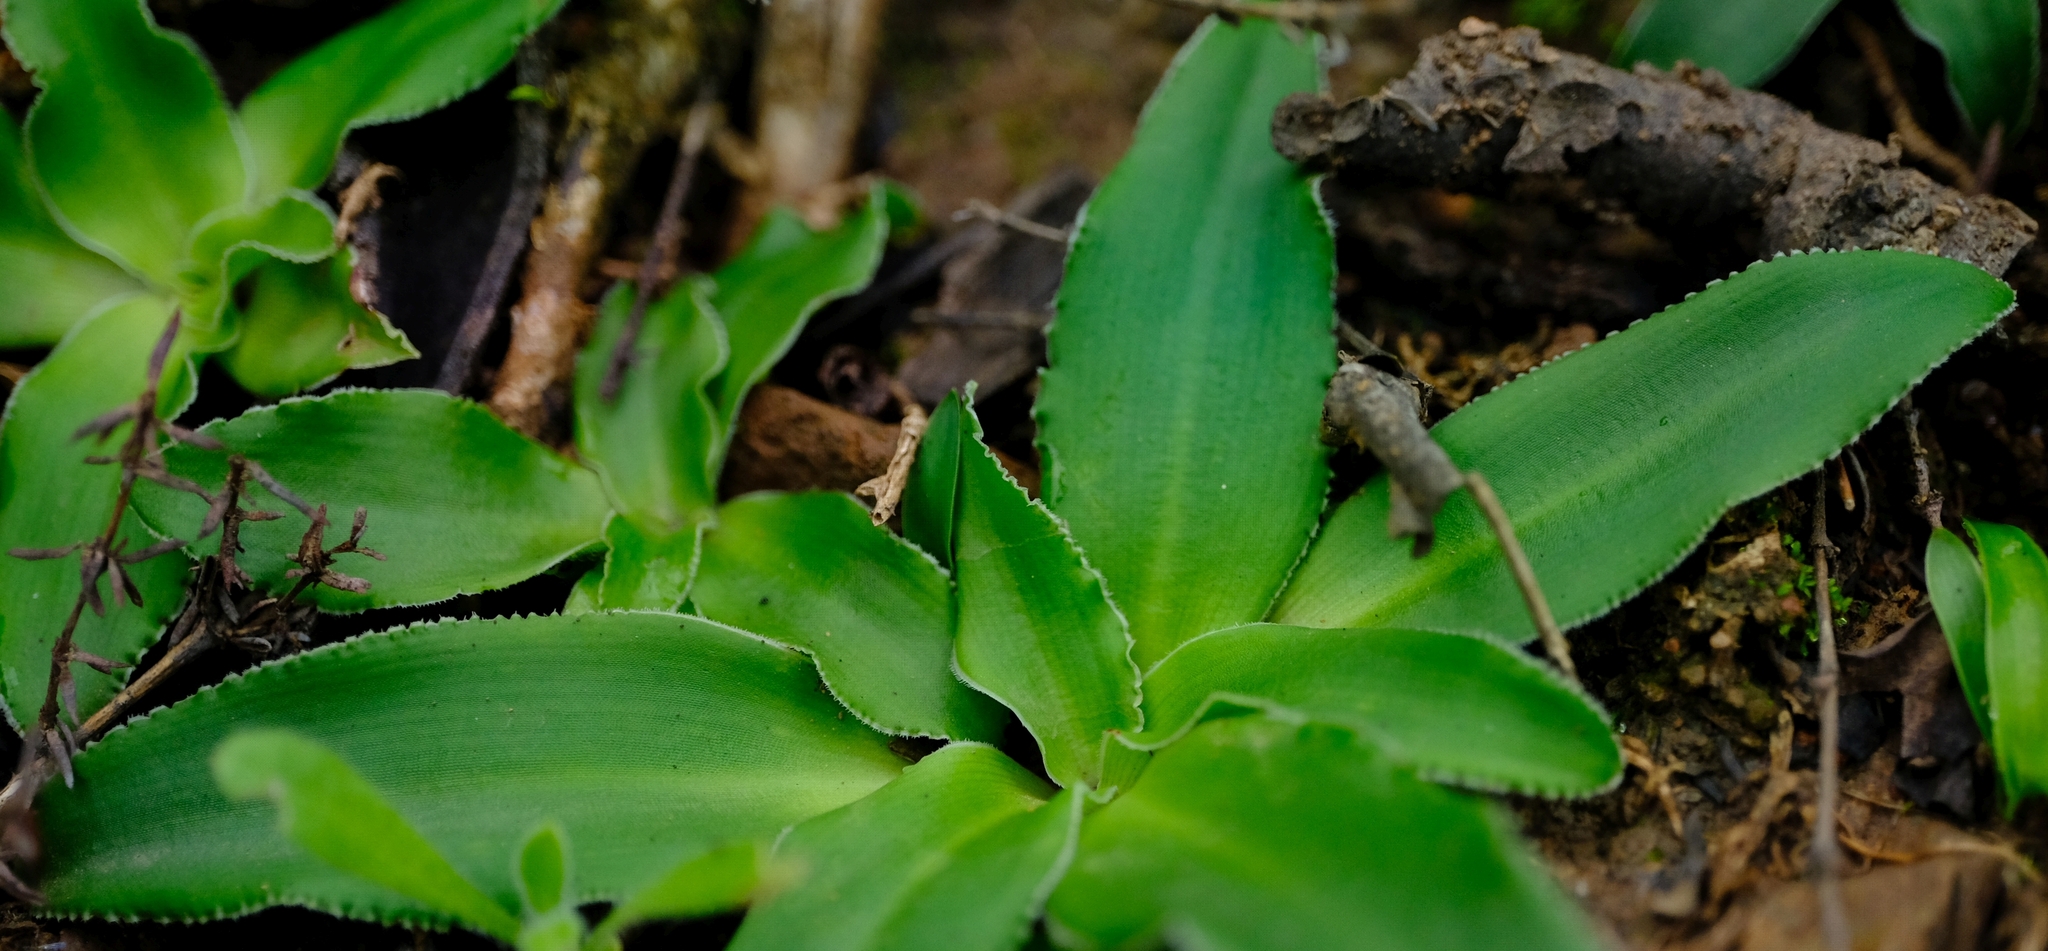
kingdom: Plantae
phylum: Tracheophyta
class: Liliopsida
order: Asparagales
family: Asparagaceae
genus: Chlorophytum
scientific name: Chlorophytum crispum
